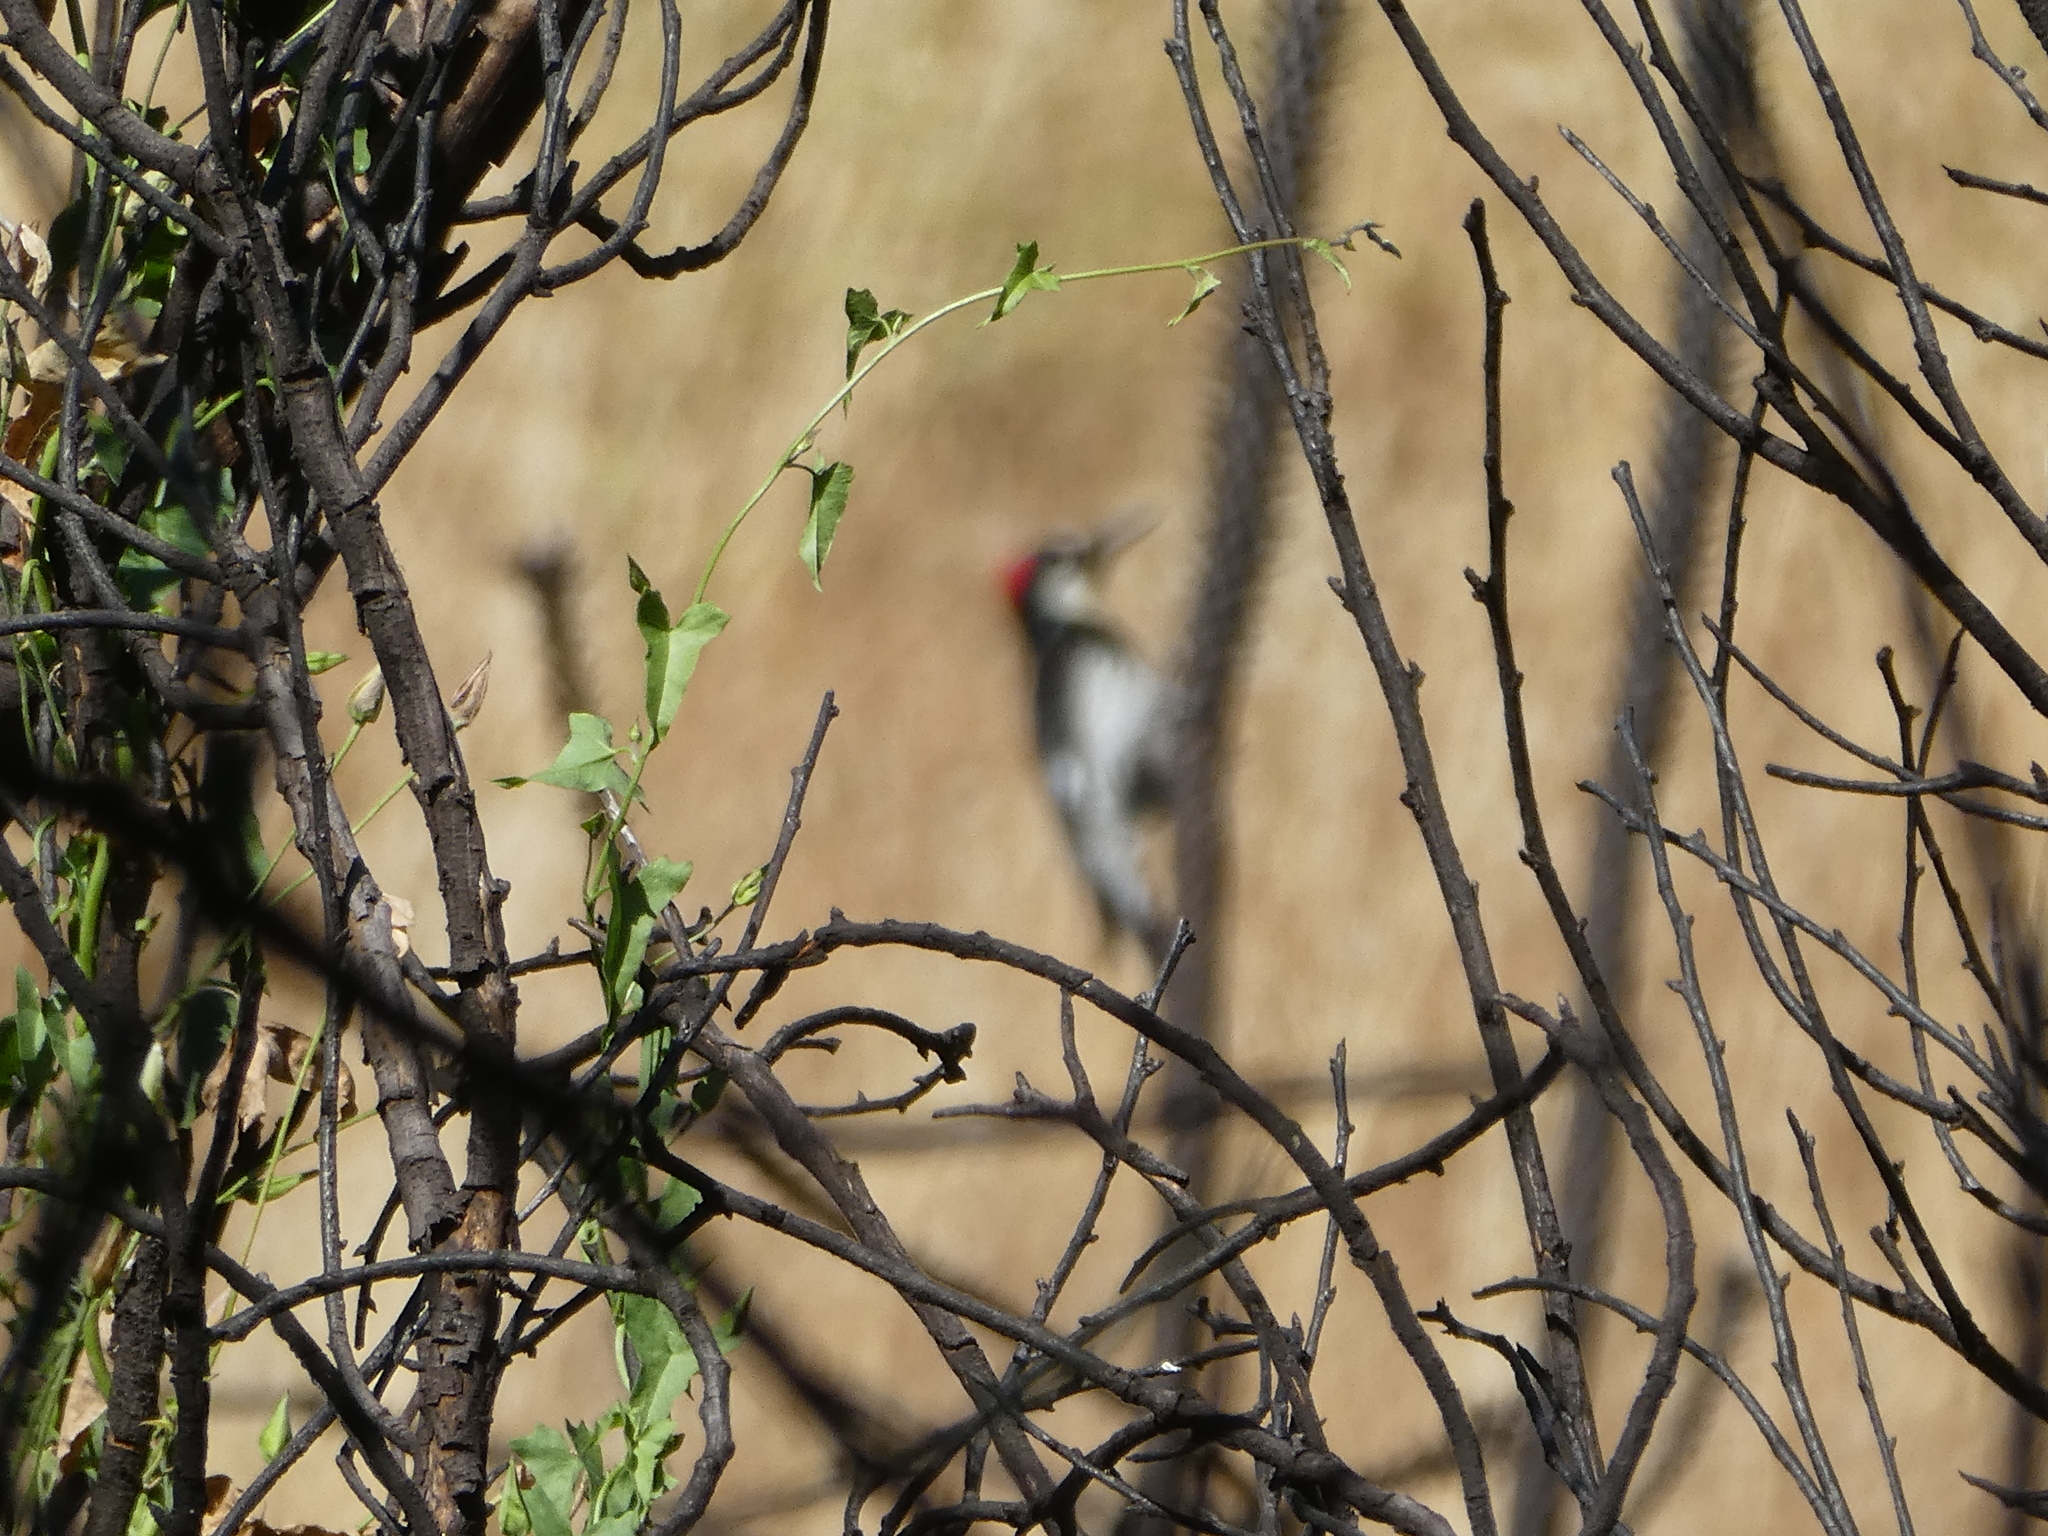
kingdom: Animalia
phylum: Chordata
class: Aves
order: Piciformes
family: Picidae
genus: Melanerpes
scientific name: Melanerpes formicivorus
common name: Acorn woodpecker
